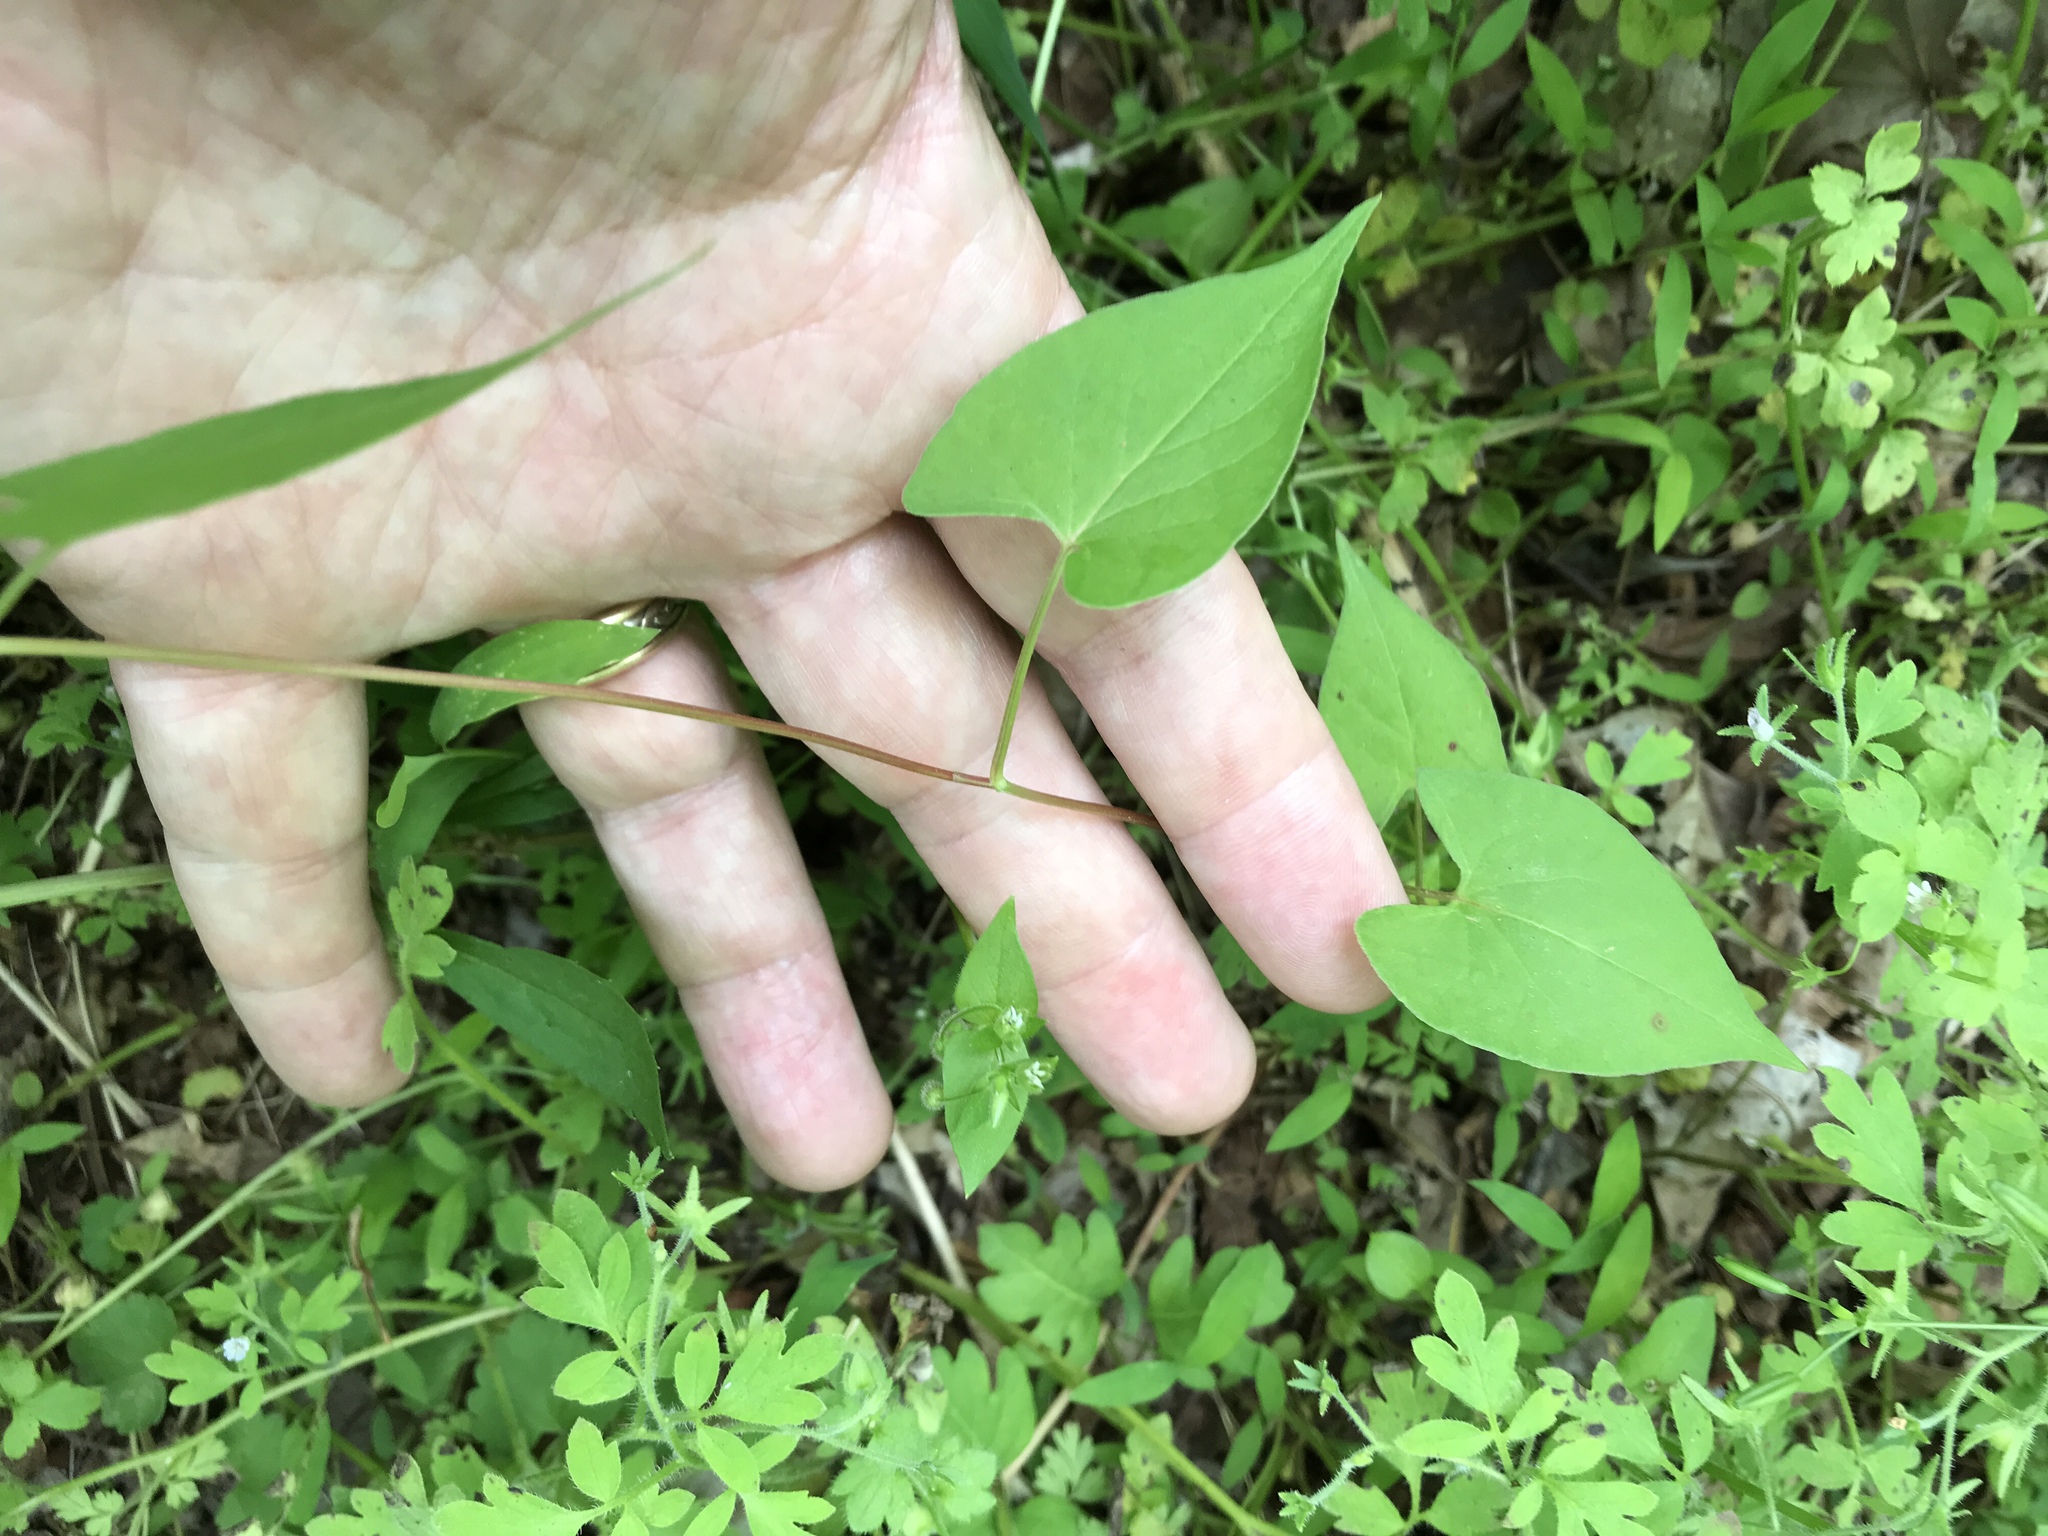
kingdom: Plantae
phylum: Tracheophyta
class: Magnoliopsida
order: Caryophyllales
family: Polygonaceae
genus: Fallopia
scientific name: Fallopia scandens
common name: Climbing false buckwheat
